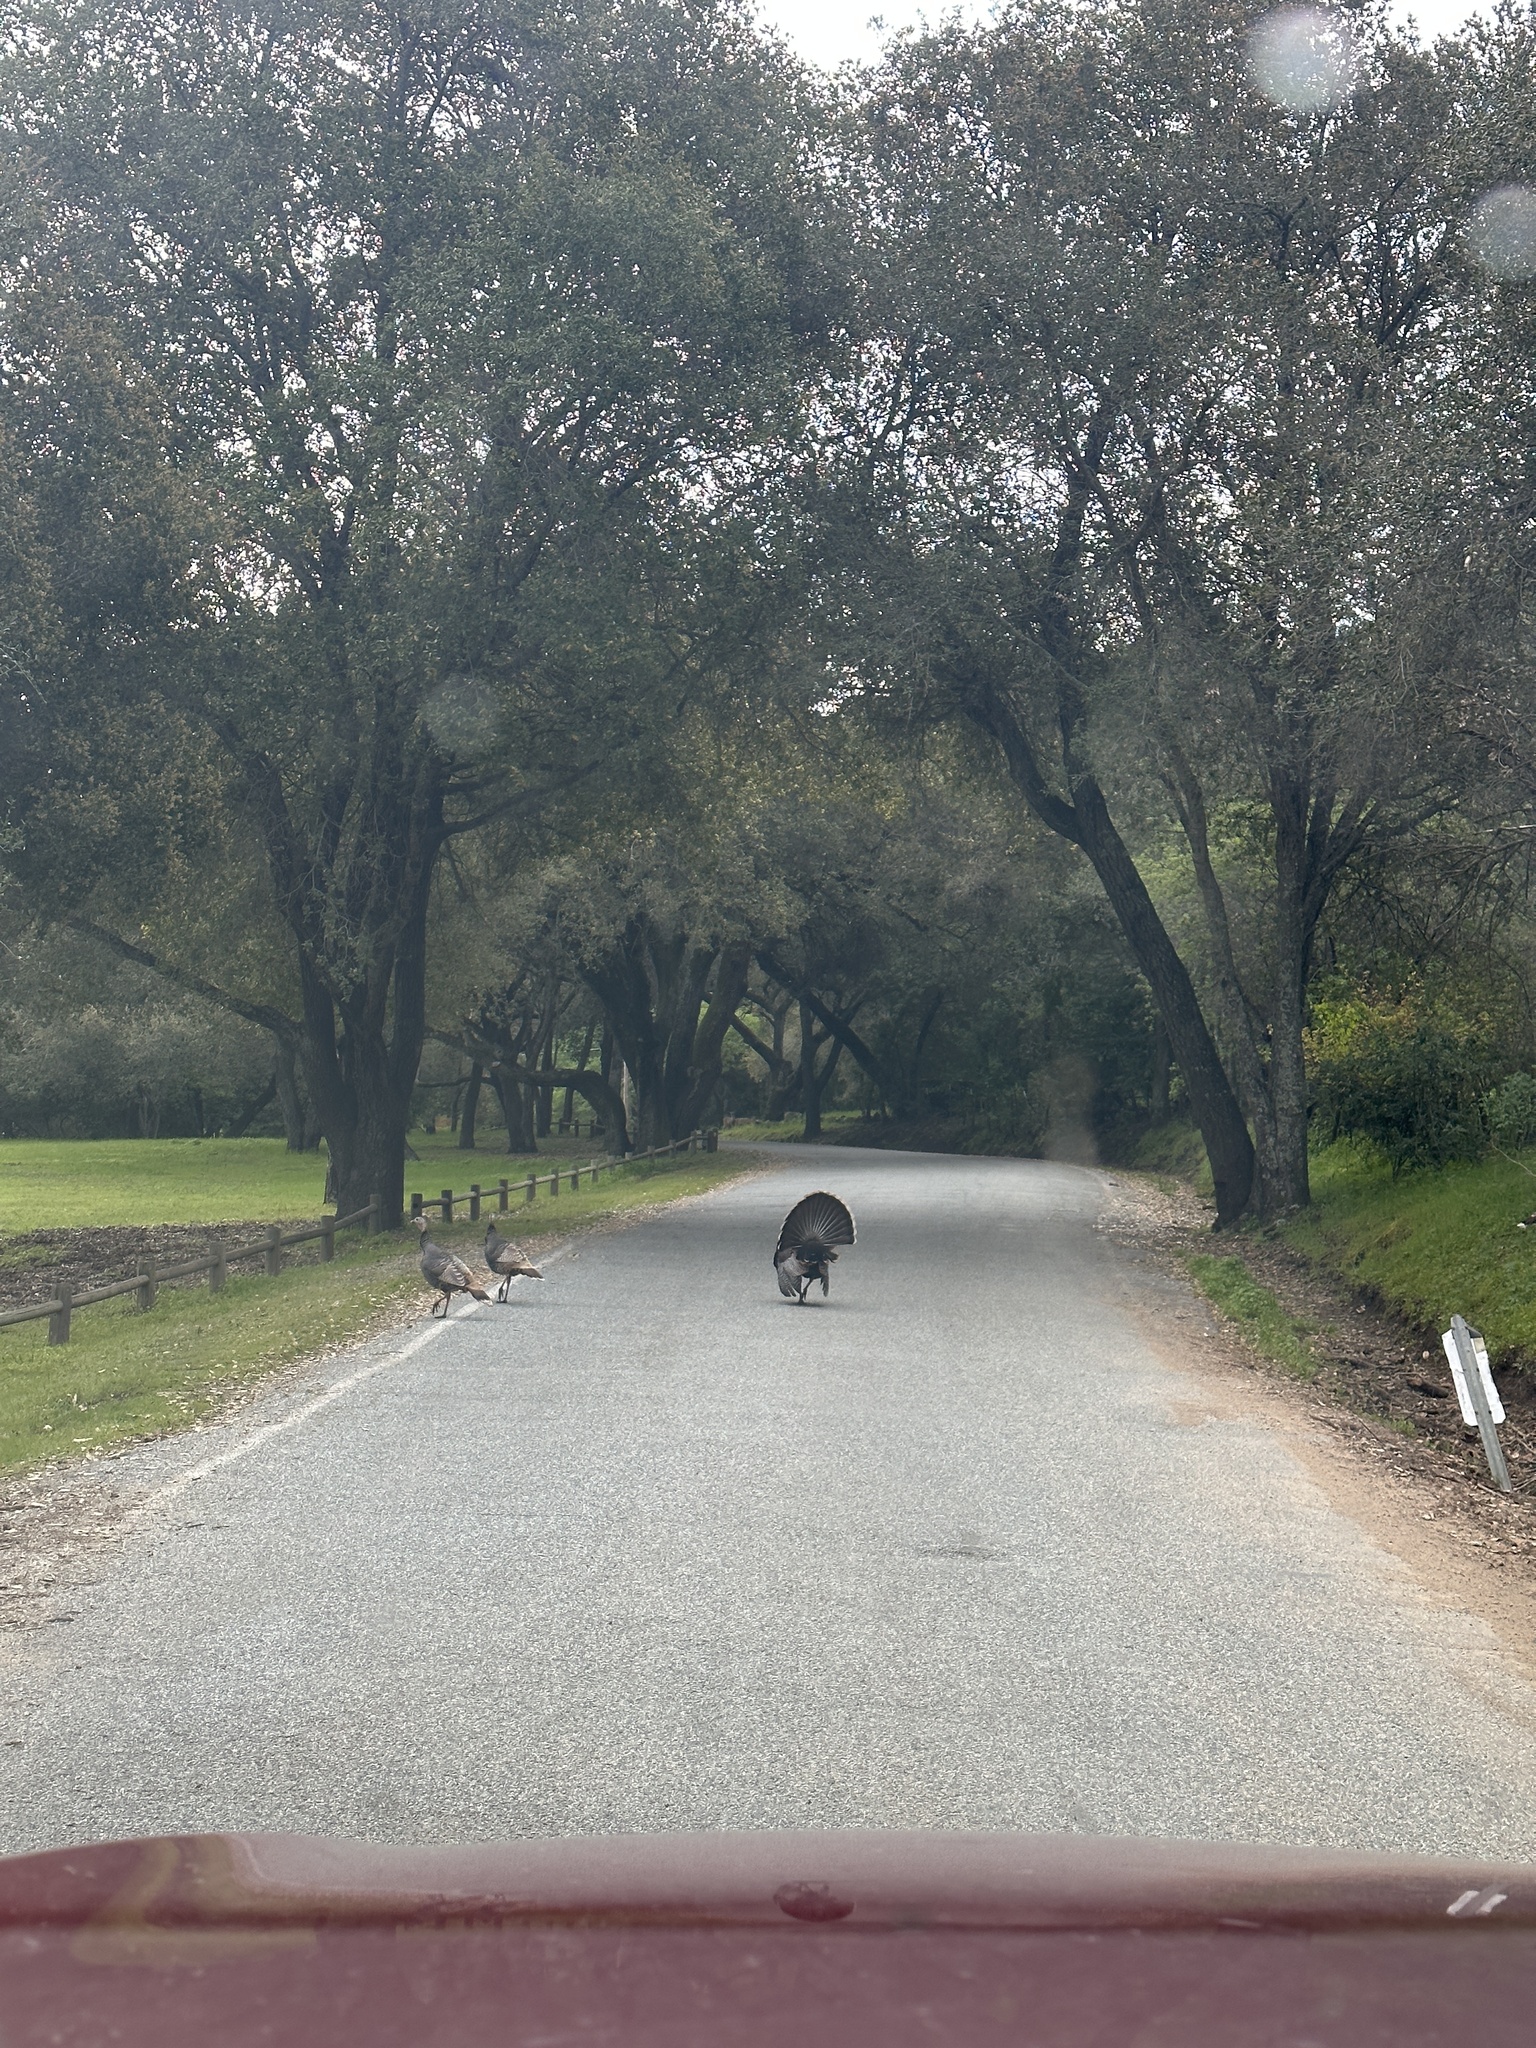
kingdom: Animalia
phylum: Chordata
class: Aves
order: Galliformes
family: Phasianidae
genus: Meleagris
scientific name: Meleagris gallopavo
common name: Wild turkey
